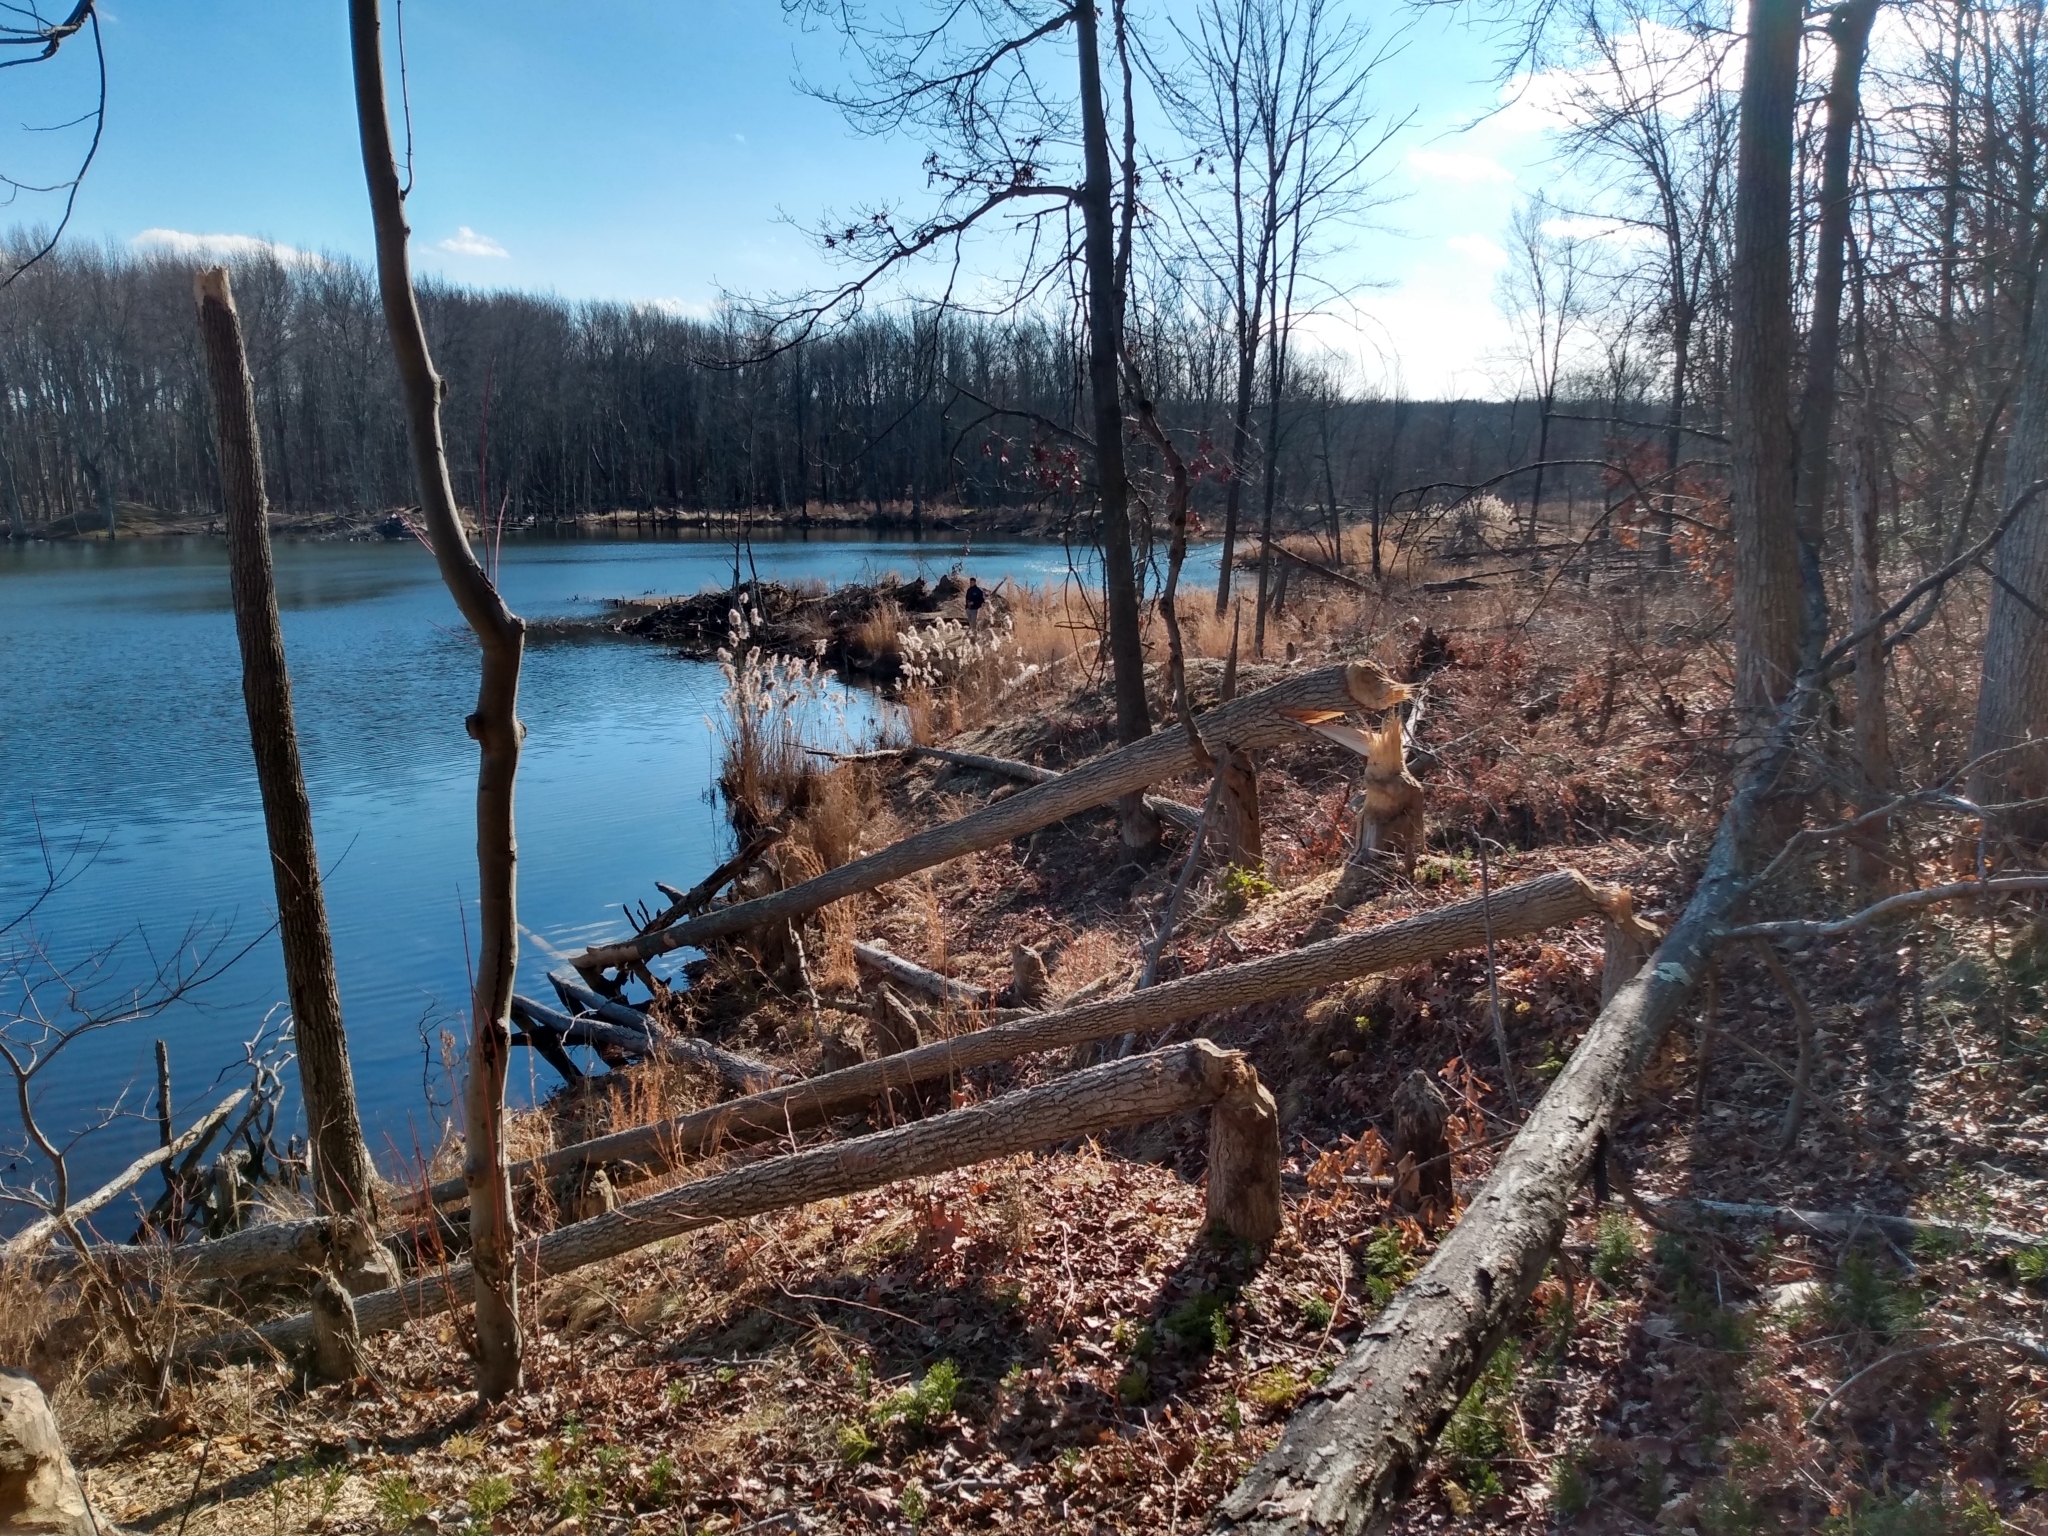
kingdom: Animalia
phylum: Chordata
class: Mammalia
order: Rodentia
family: Castoridae
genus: Castor
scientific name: Castor canadensis
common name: American beaver
